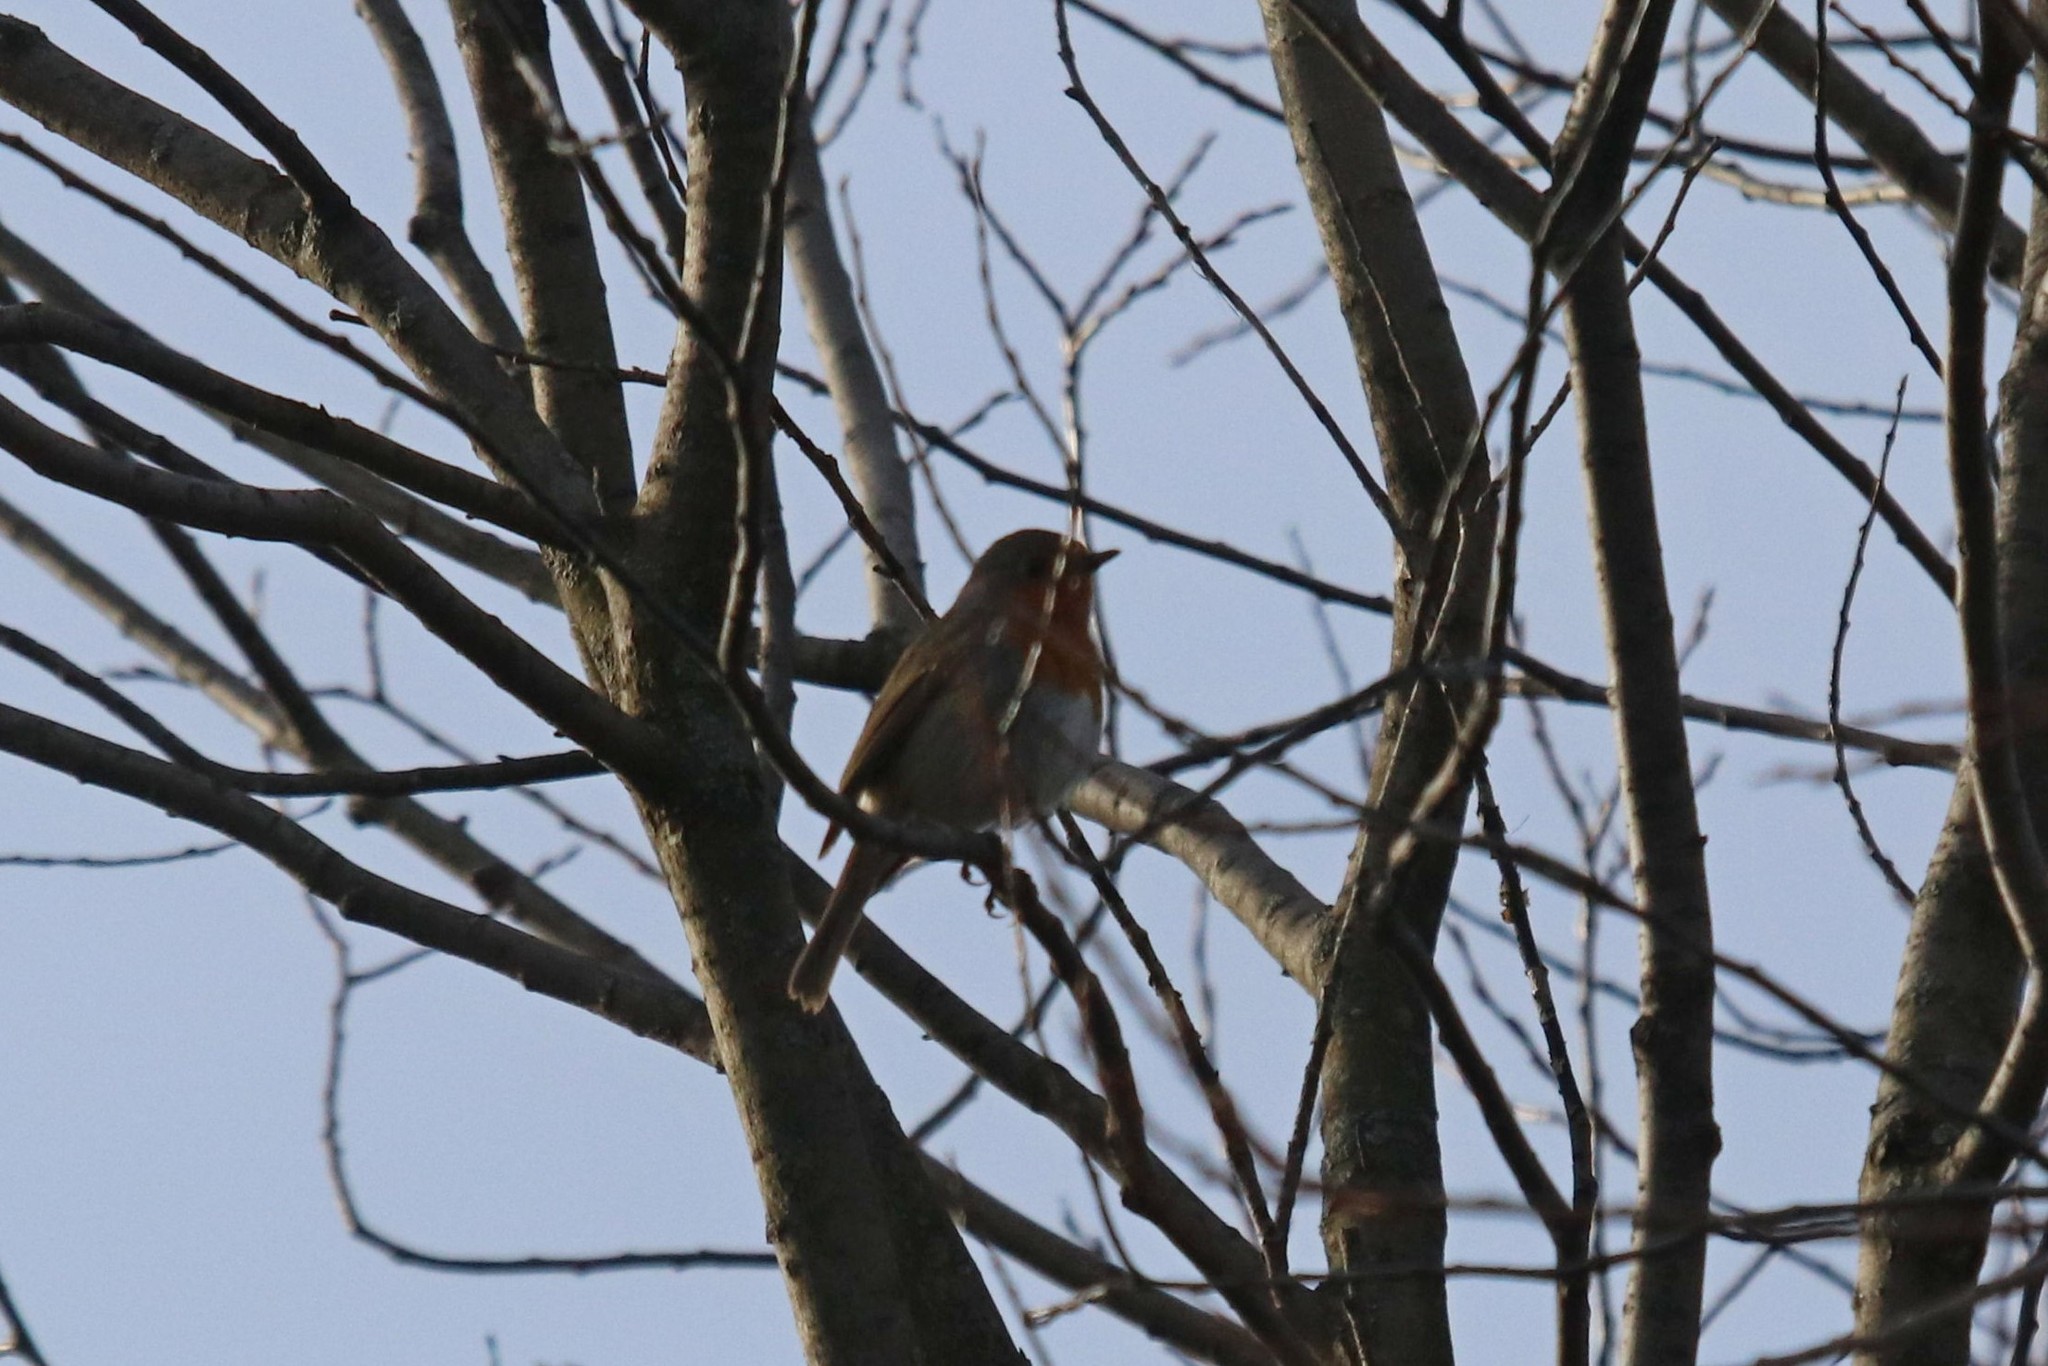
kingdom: Animalia
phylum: Chordata
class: Aves
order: Passeriformes
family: Muscicapidae
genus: Erithacus
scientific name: Erithacus rubecula
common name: European robin
